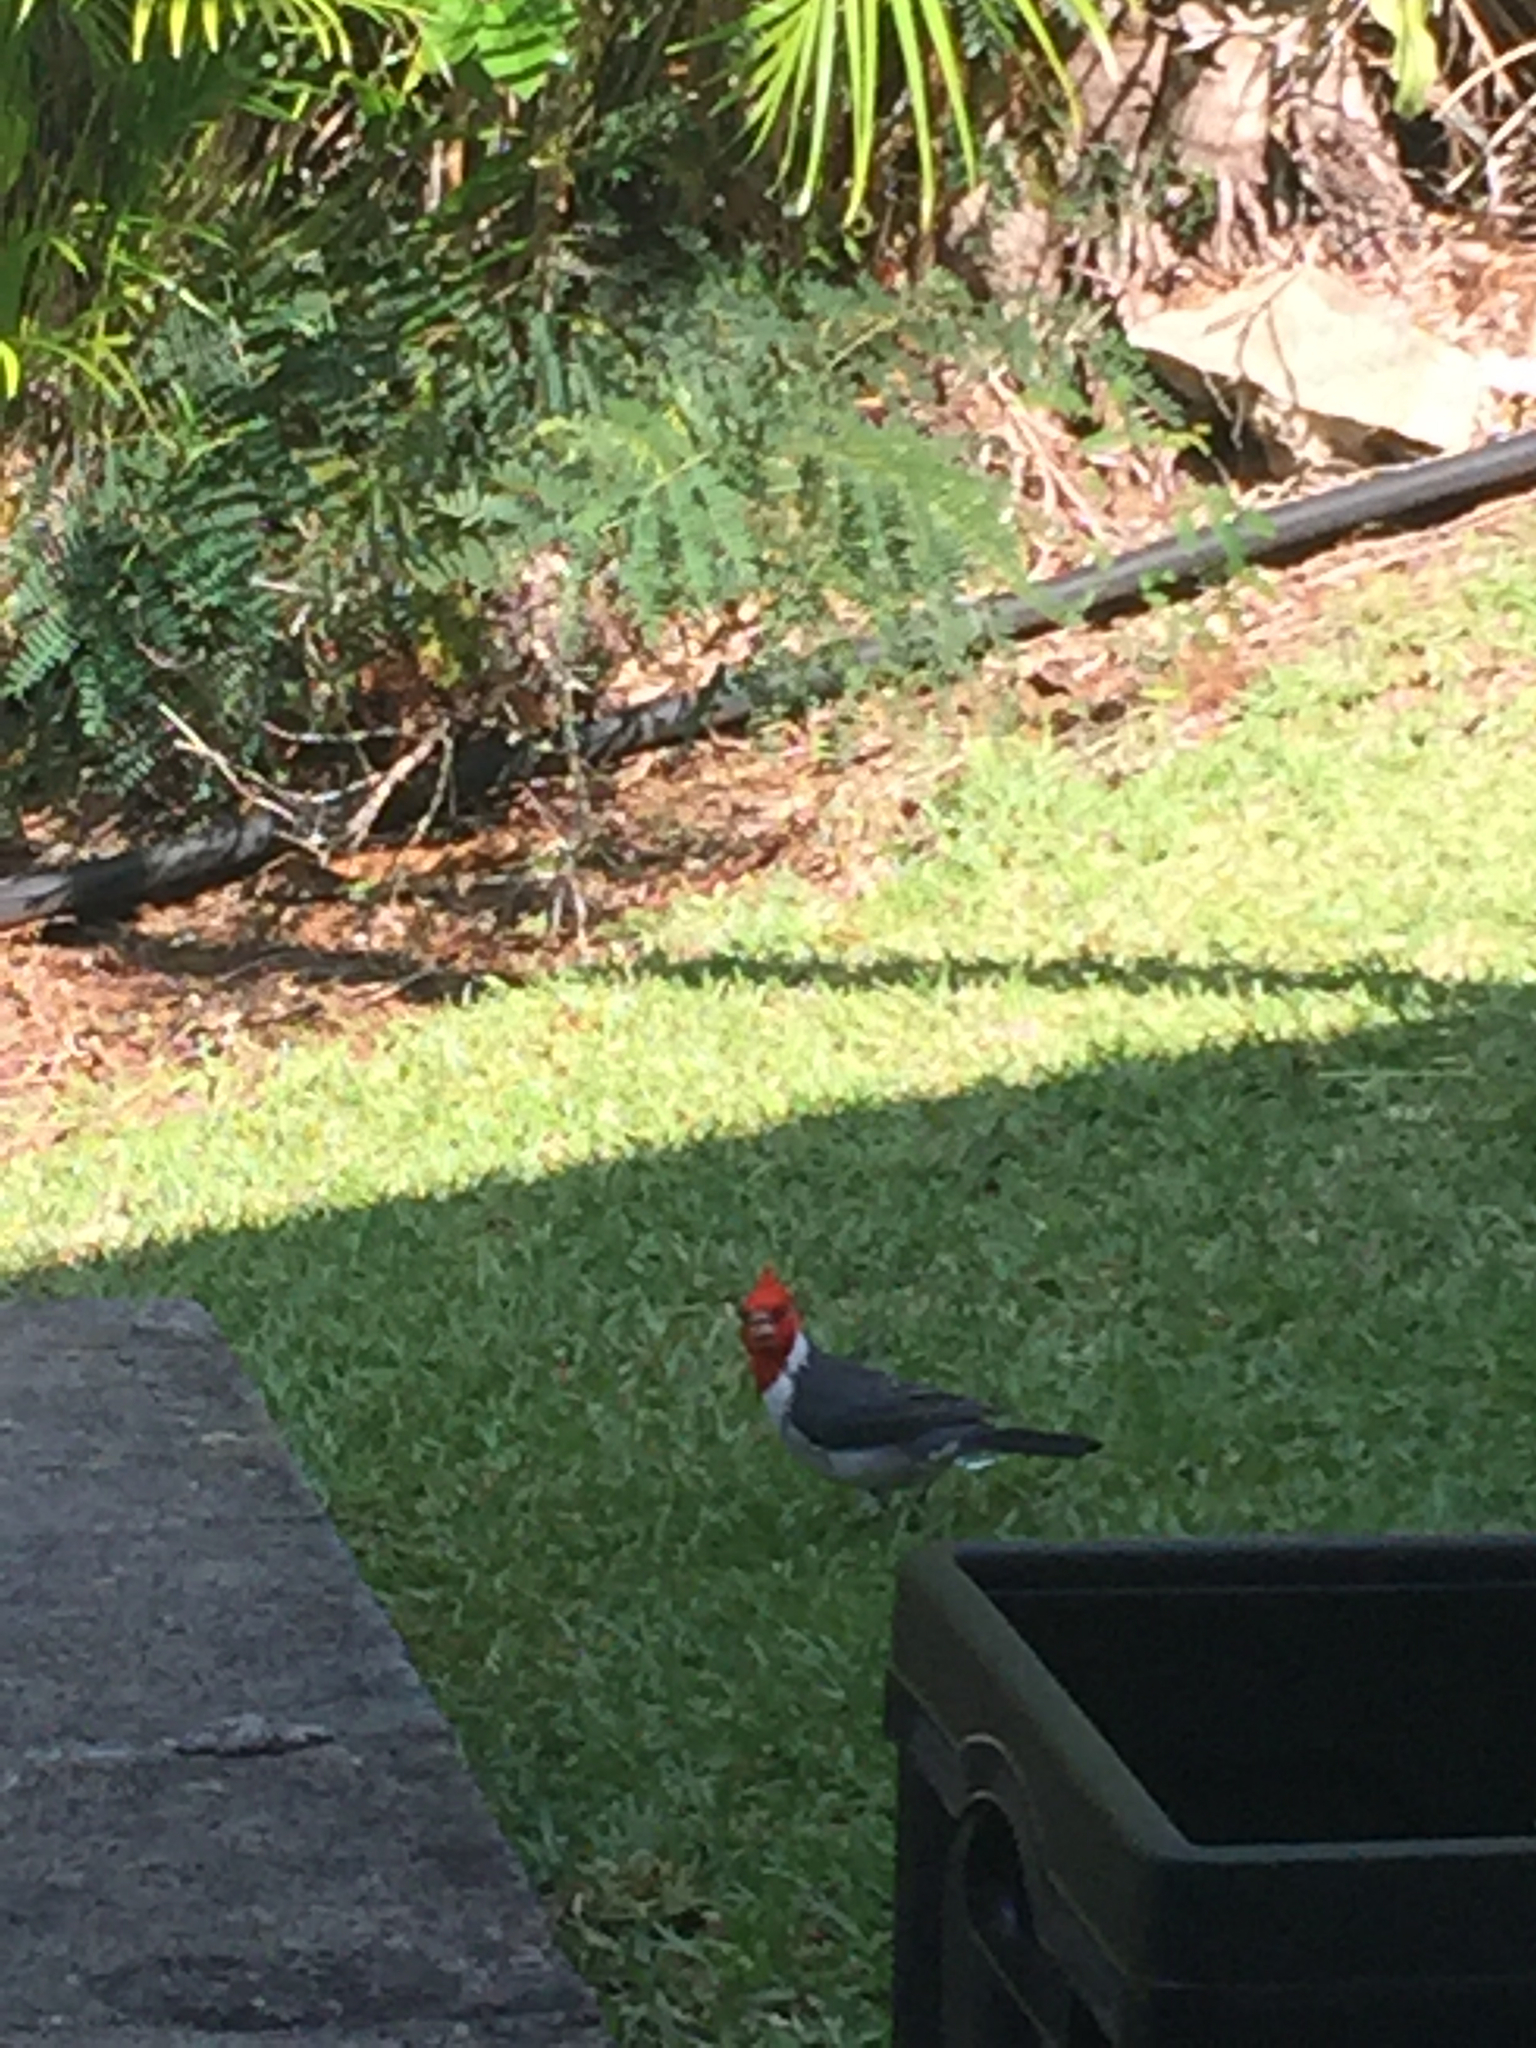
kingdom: Animalia
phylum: Chordata
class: Aves
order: Passeriformes
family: Thraupidae
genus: Paroaria
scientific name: Paroaria coronata
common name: Red-crested cardinal
